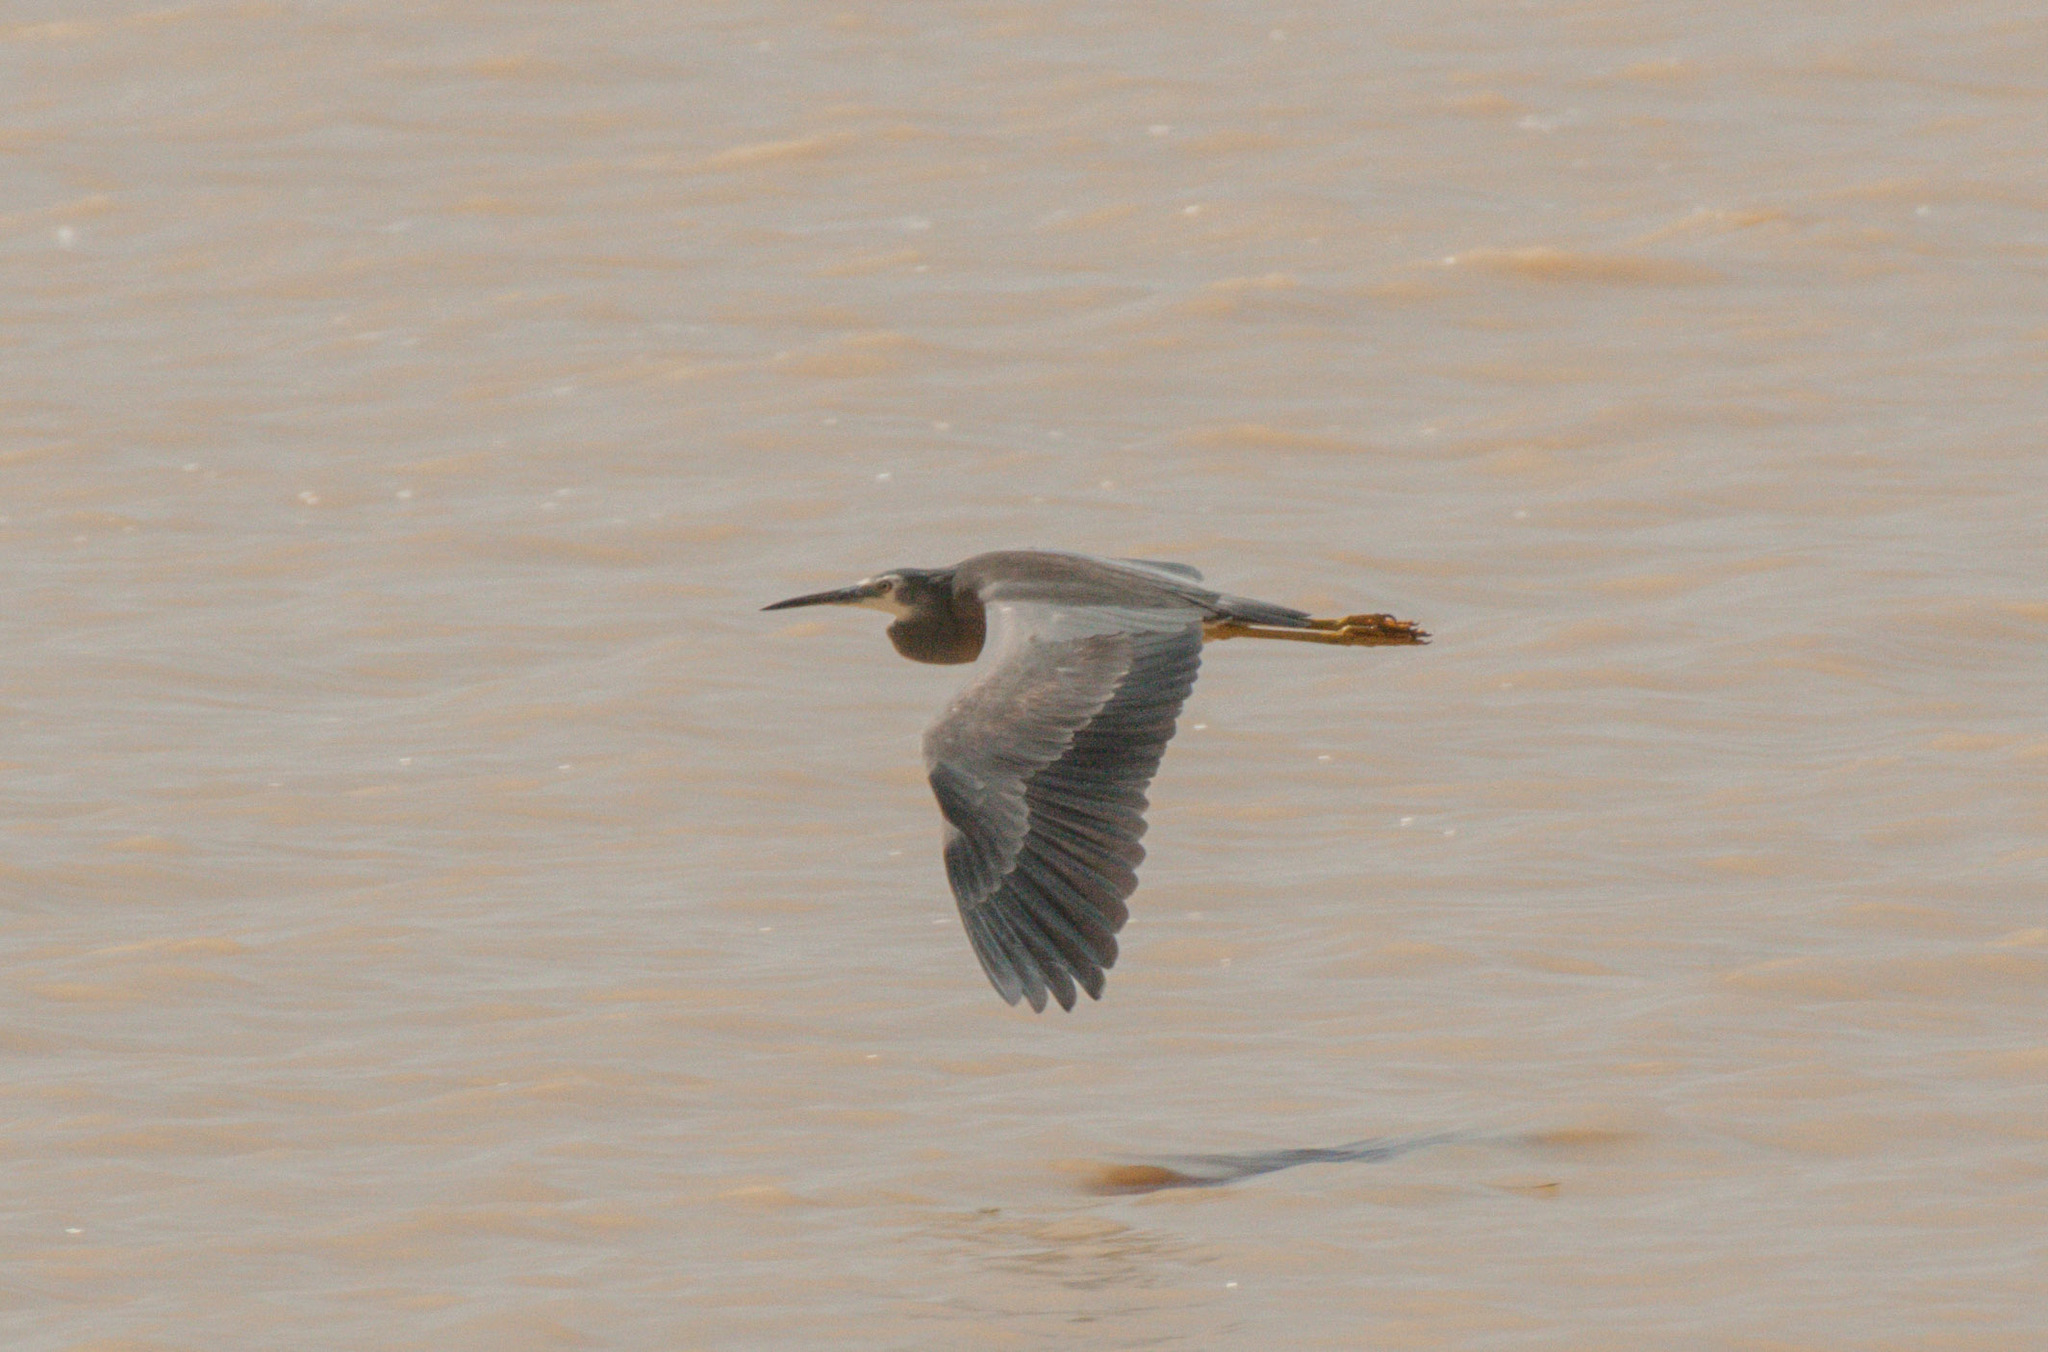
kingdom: Animalia
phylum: Chordata
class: Aves
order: Pelecaniformes
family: Ardeidae
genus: Egretta
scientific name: Egretta novaehollandiae
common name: White-faced heron
